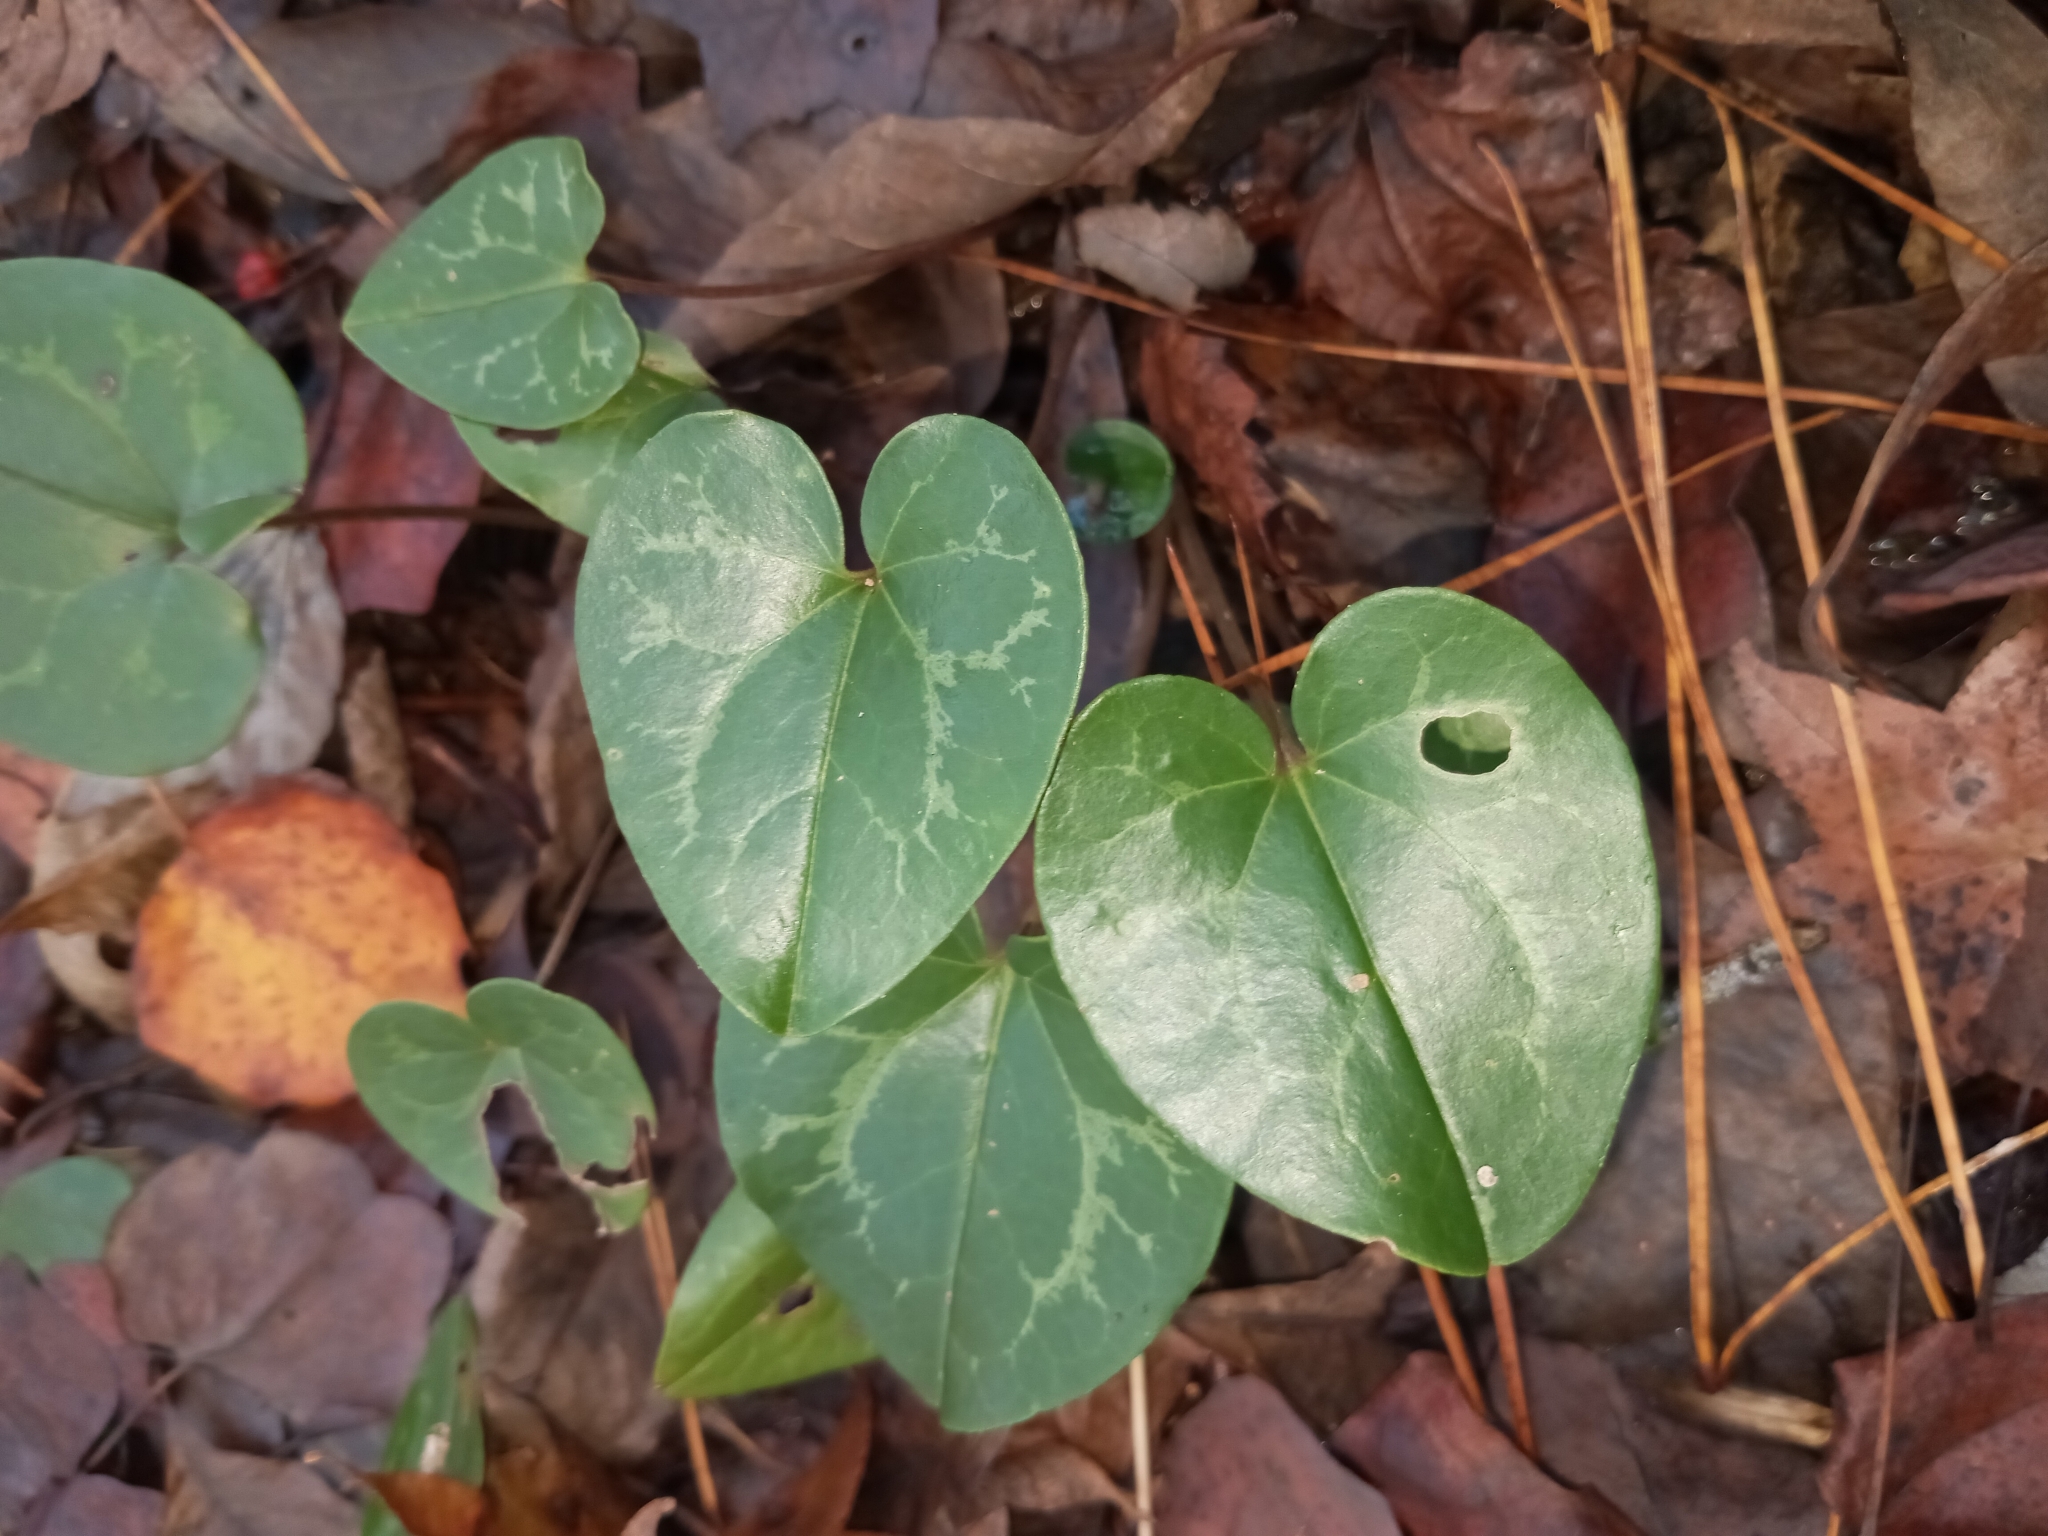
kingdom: Plantae
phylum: Tracheophyta
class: Magnoliopsida
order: Piperales
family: Aristolochiaceae
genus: Hexastylis
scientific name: Hexastylis sorriei
